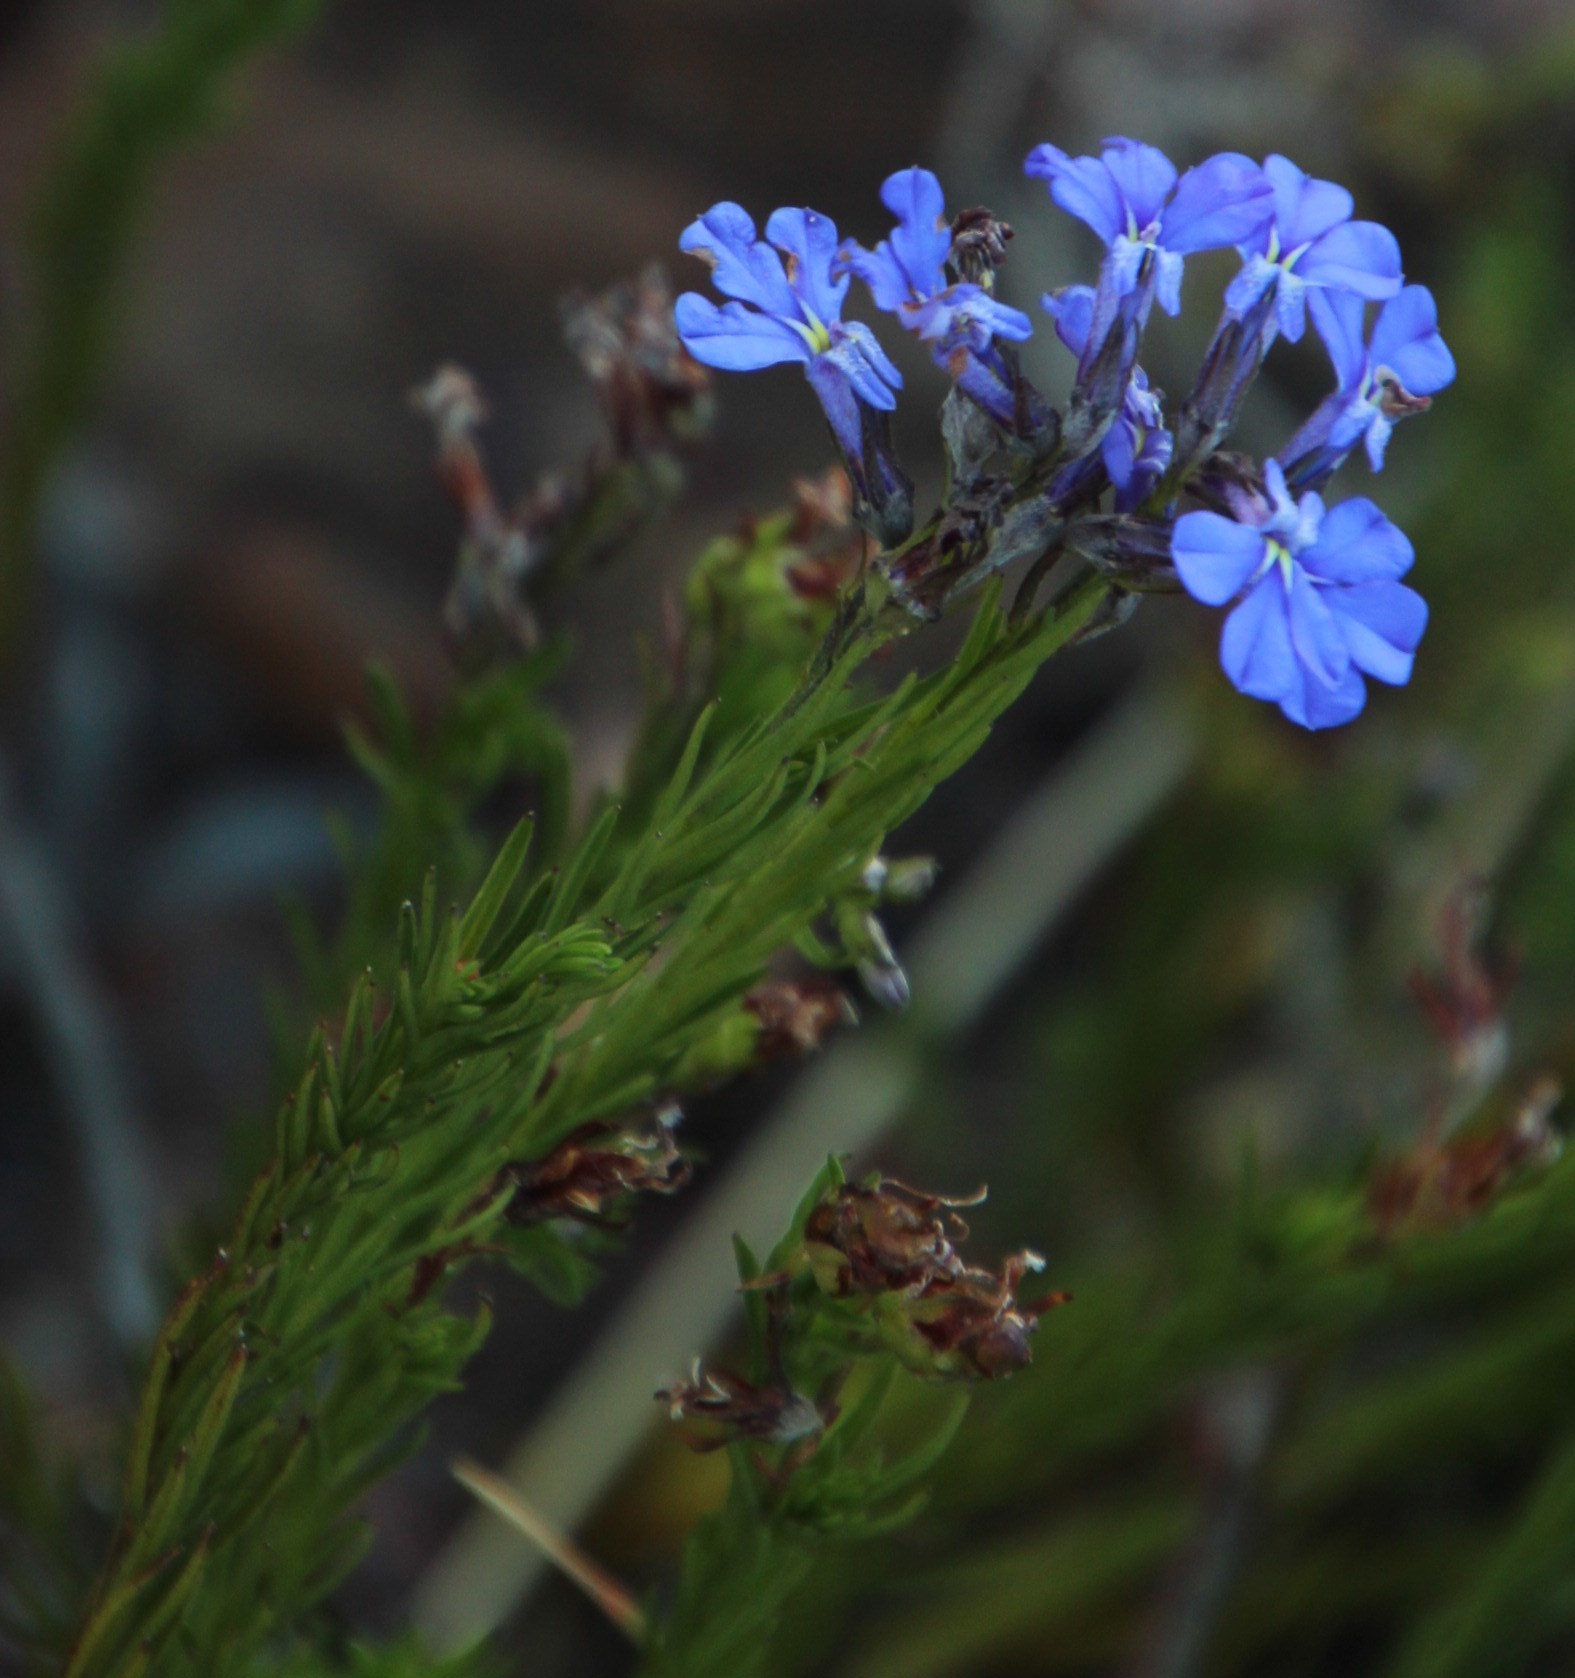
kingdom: Plantae
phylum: Tracheophyta
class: Magnoliopsida
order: Asterales
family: Campanulaceae
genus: Lobelia
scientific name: Lobelia pinifolia
